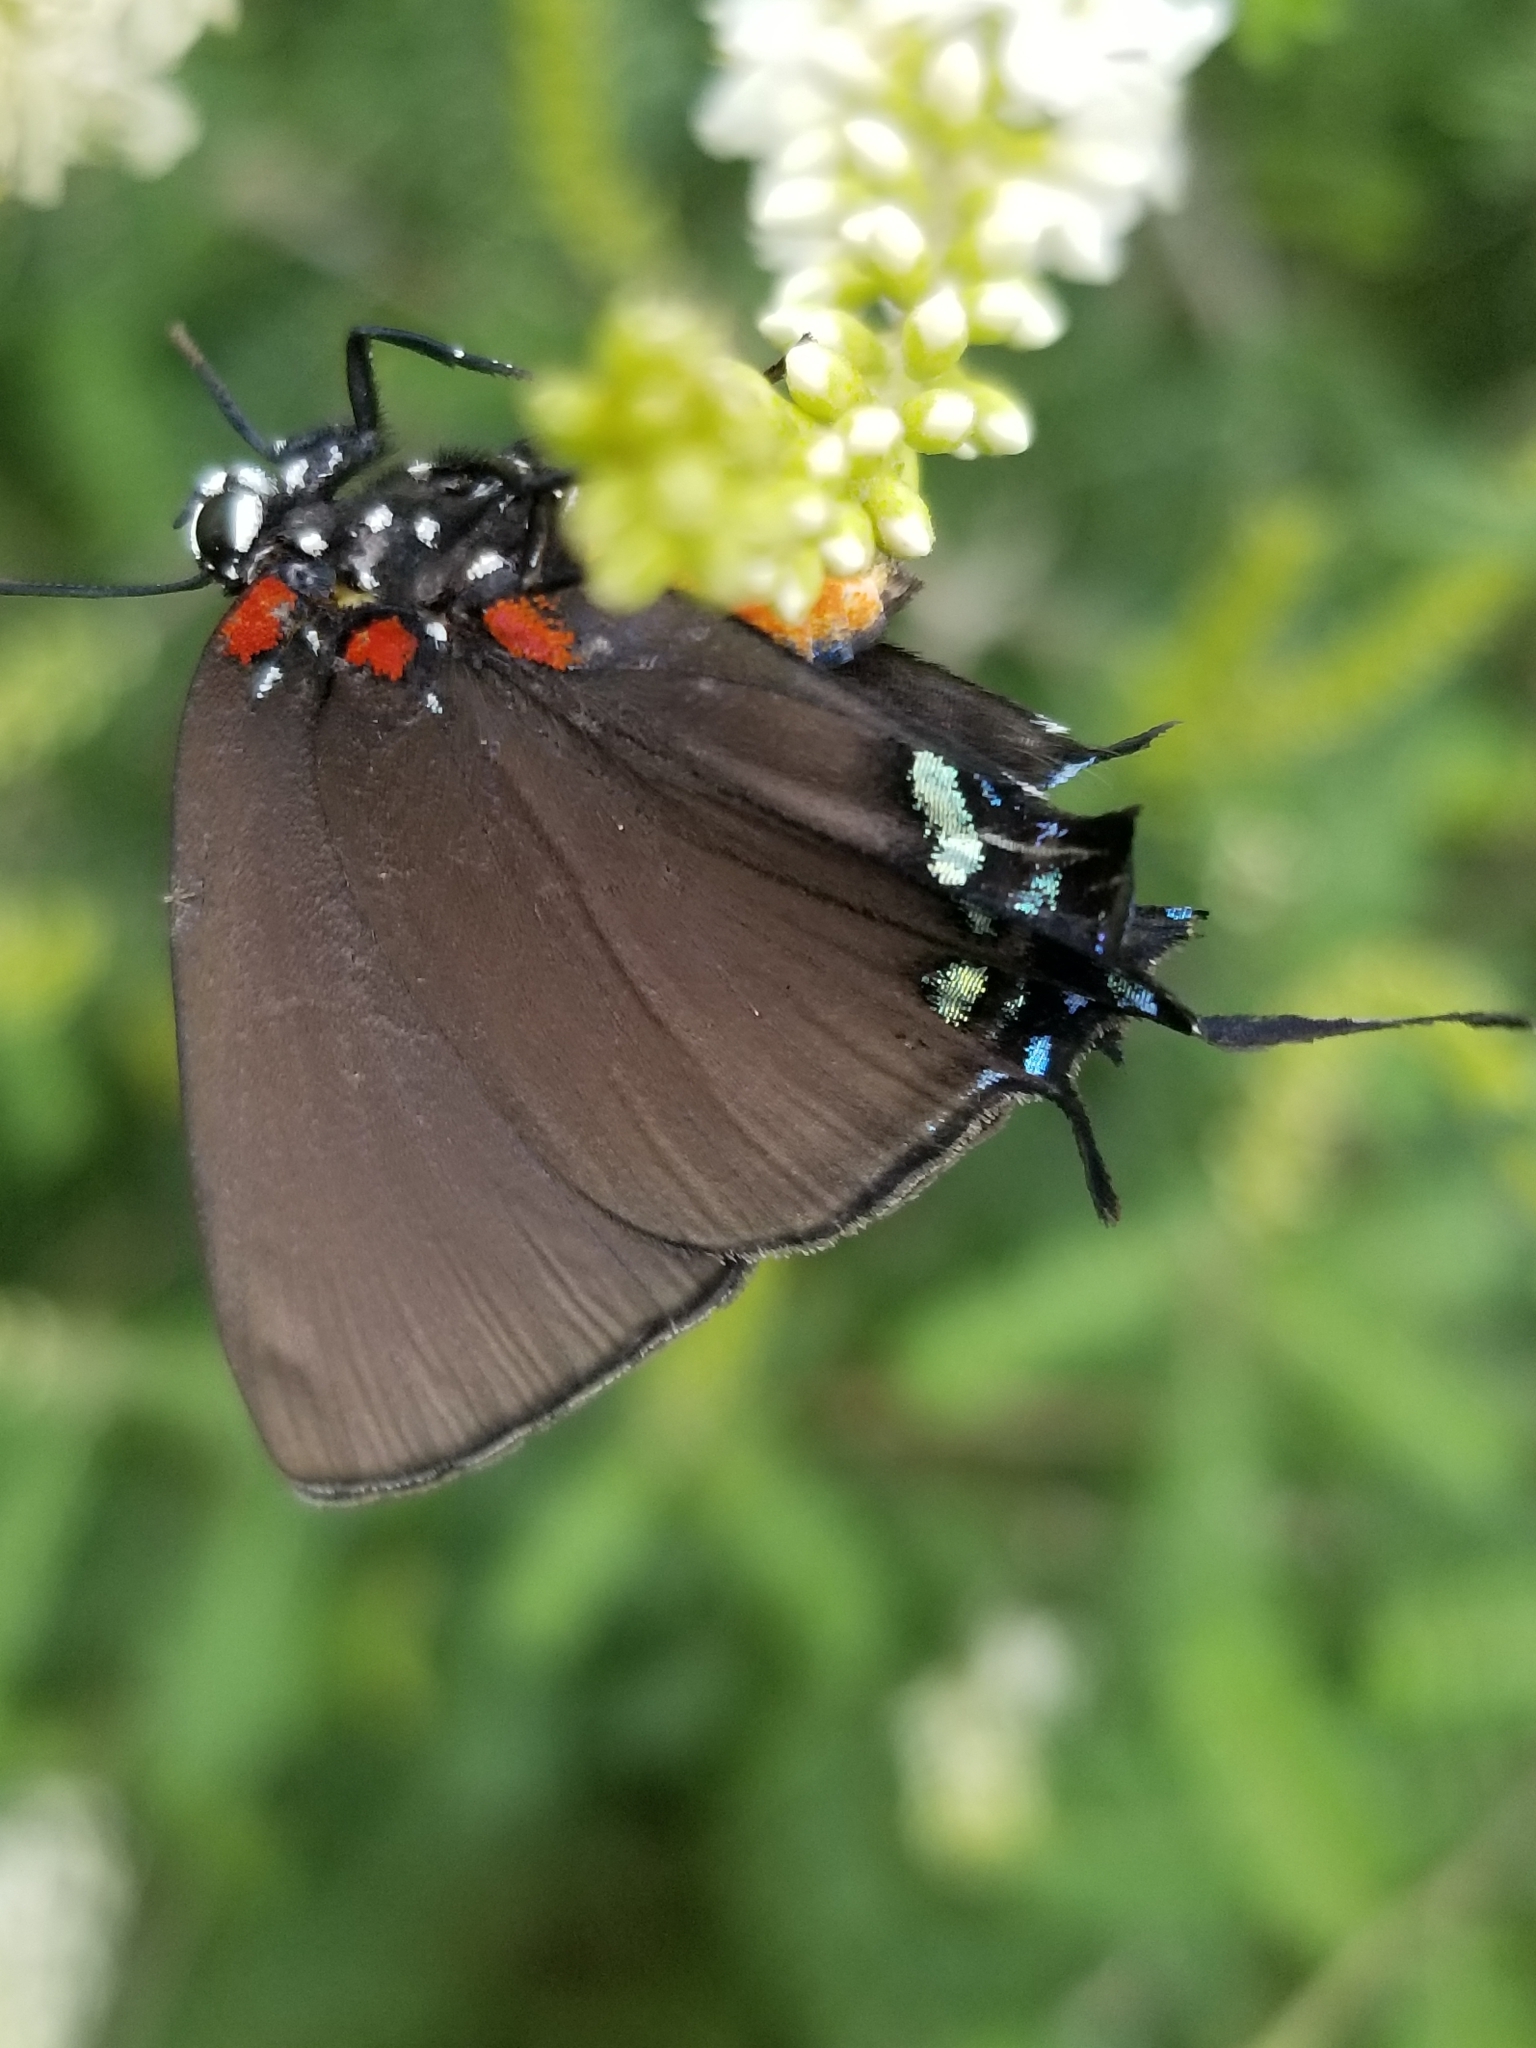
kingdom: Animalia
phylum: Arthropoda
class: Insecta
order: Lepidoptera
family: Lycaenidae
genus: Atlides
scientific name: Atlides halesus
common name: Great purple hairstreak
